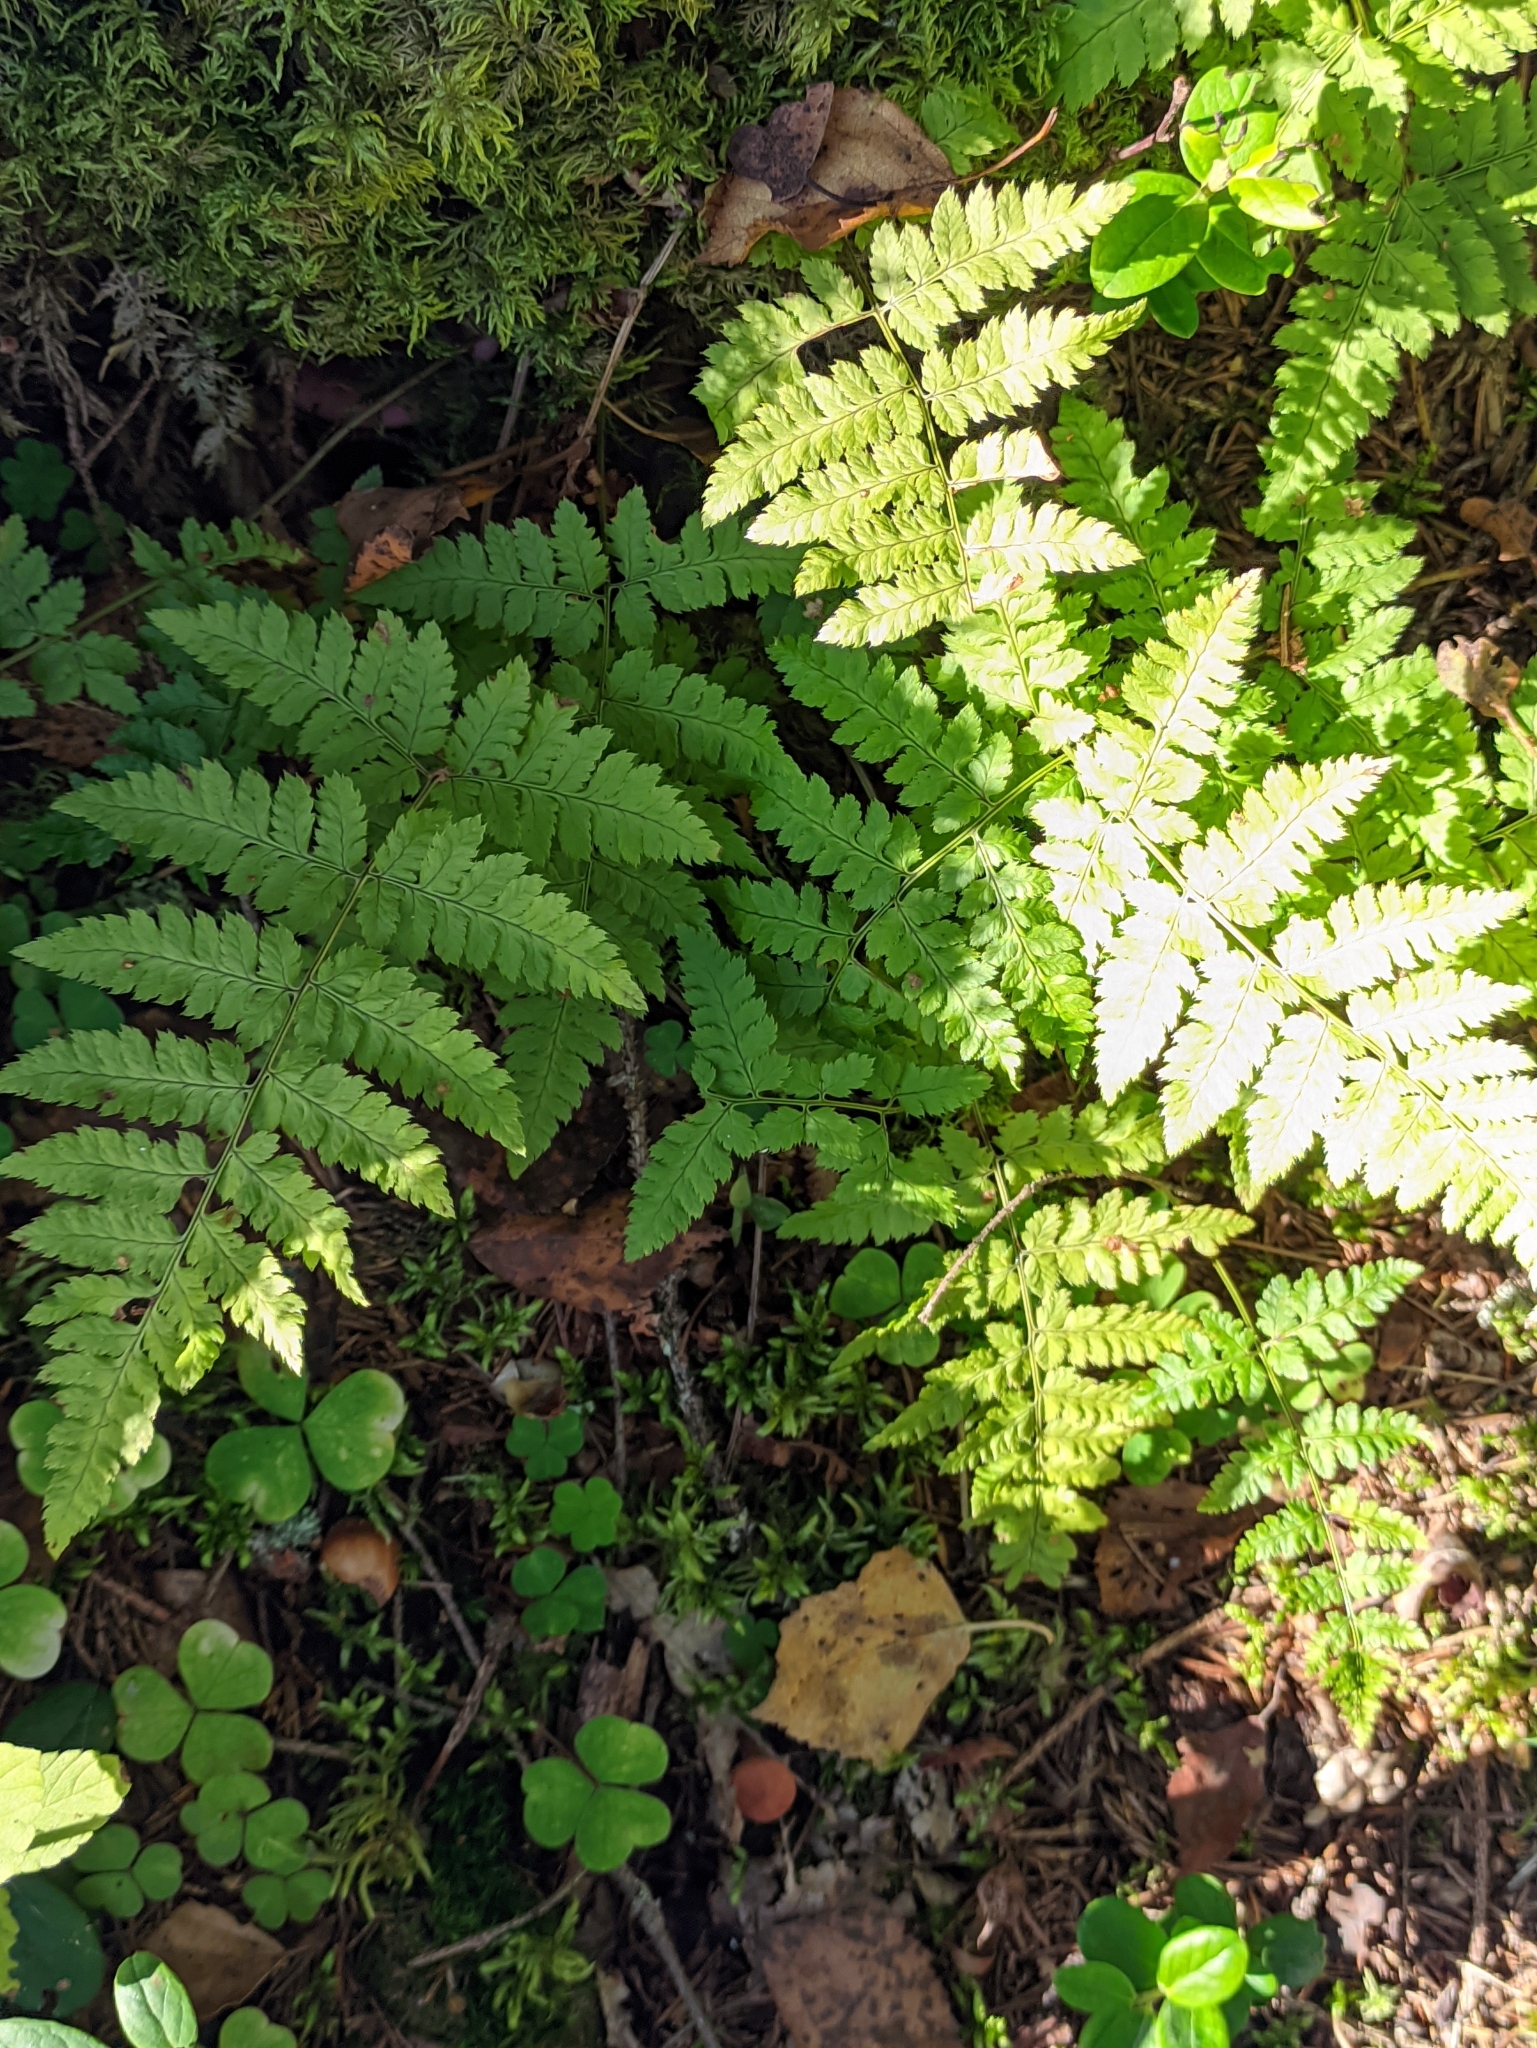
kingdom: Plantae
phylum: Tracheophyta
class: Polypodiopsida
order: Polypodiales
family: Dryopteridaceae
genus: Dryopteris
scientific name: Dryopteris carthusiana
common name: Narrow buckler-fern
